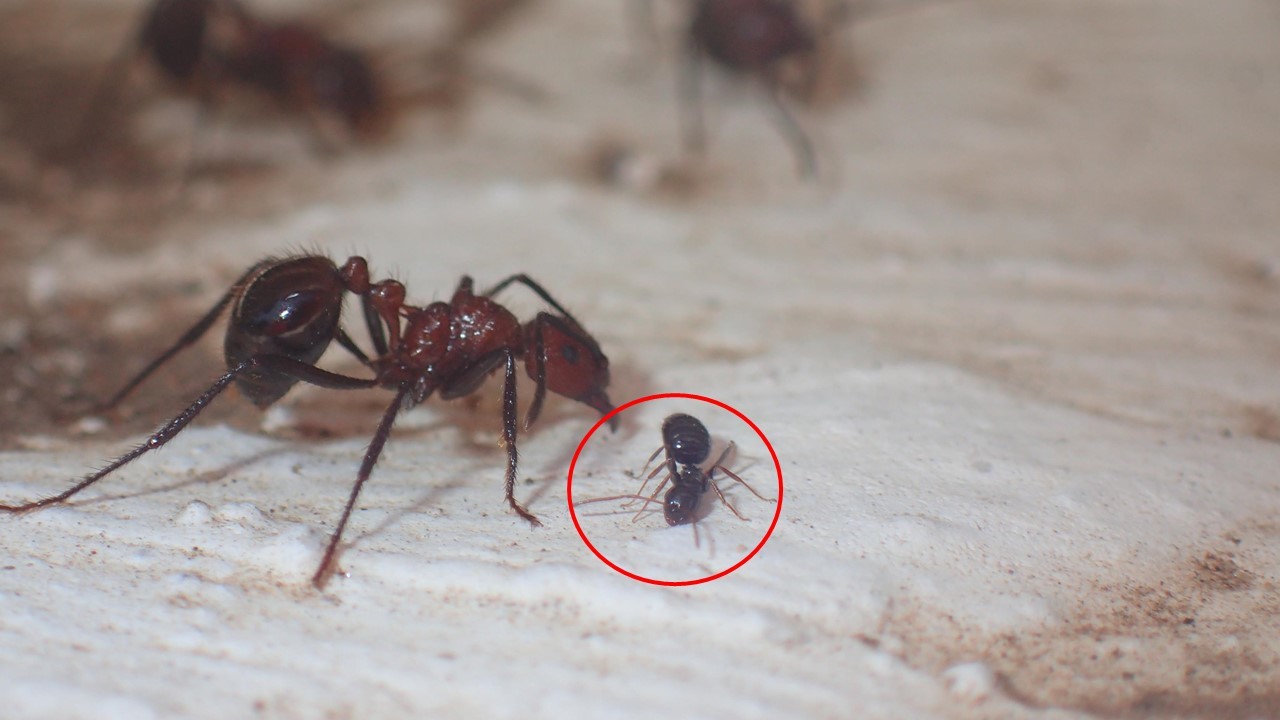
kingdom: Animalia
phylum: Arthropoda
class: Insecta
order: Hymenoptera
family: Formicidae
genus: Lepisiota
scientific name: Lepisiota capensis
